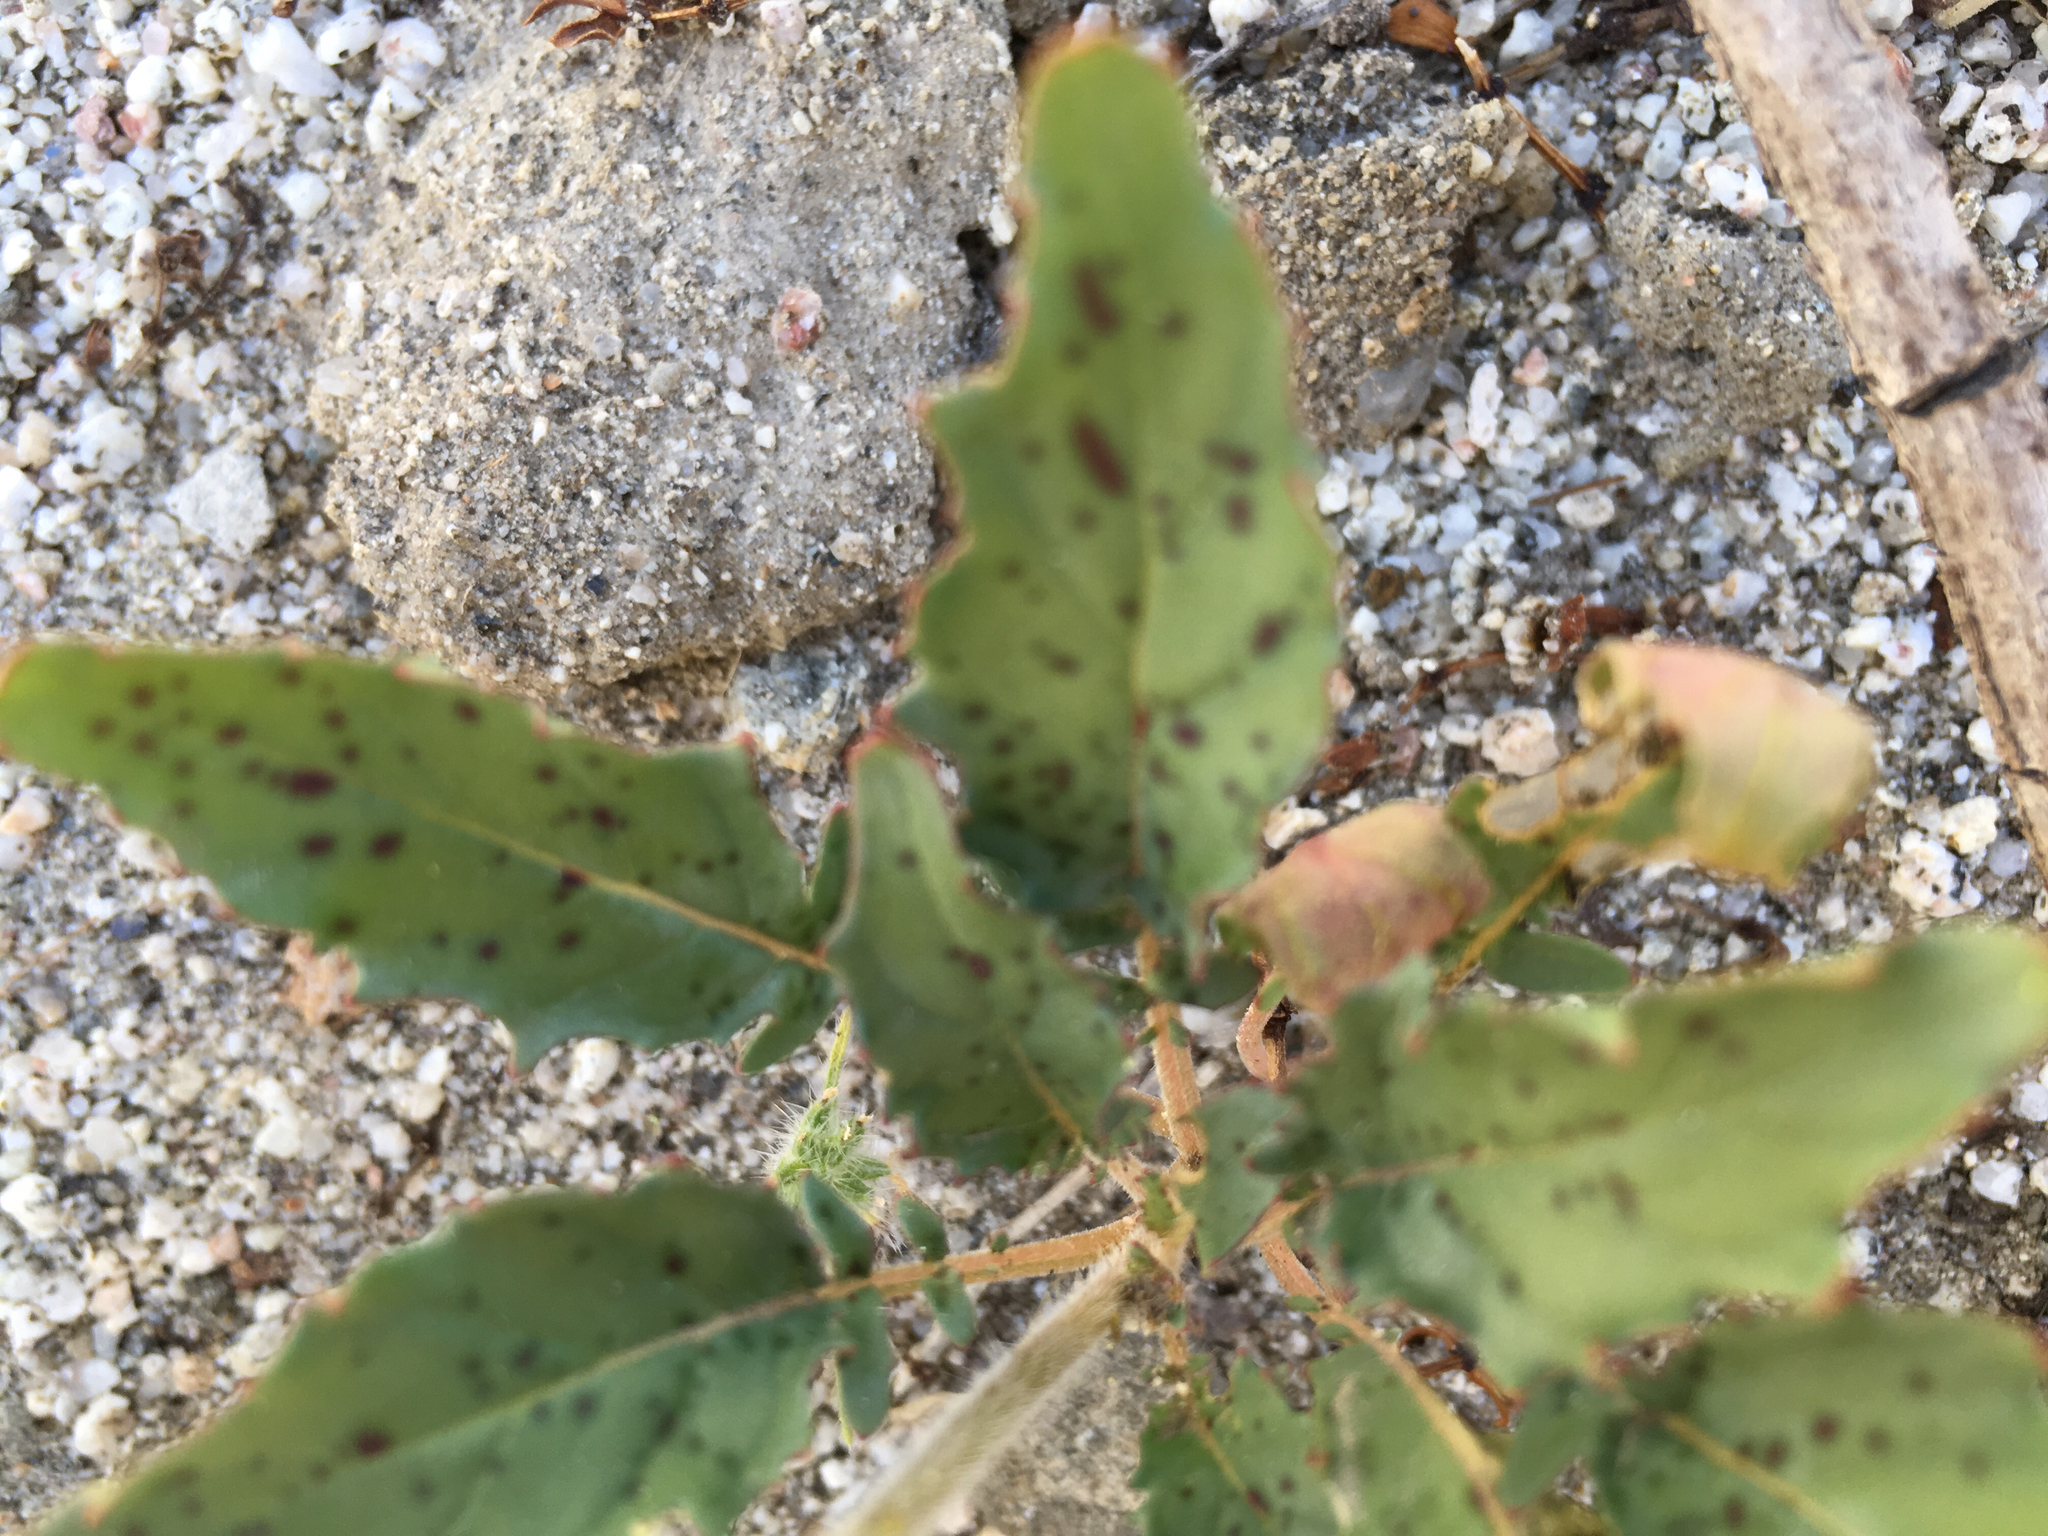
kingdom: Plantae
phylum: Tracheophyta
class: Magnoliopsida
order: Myrtales
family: Onagraceae
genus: Chylismia
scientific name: Chylismia claviformis
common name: Browneyes
